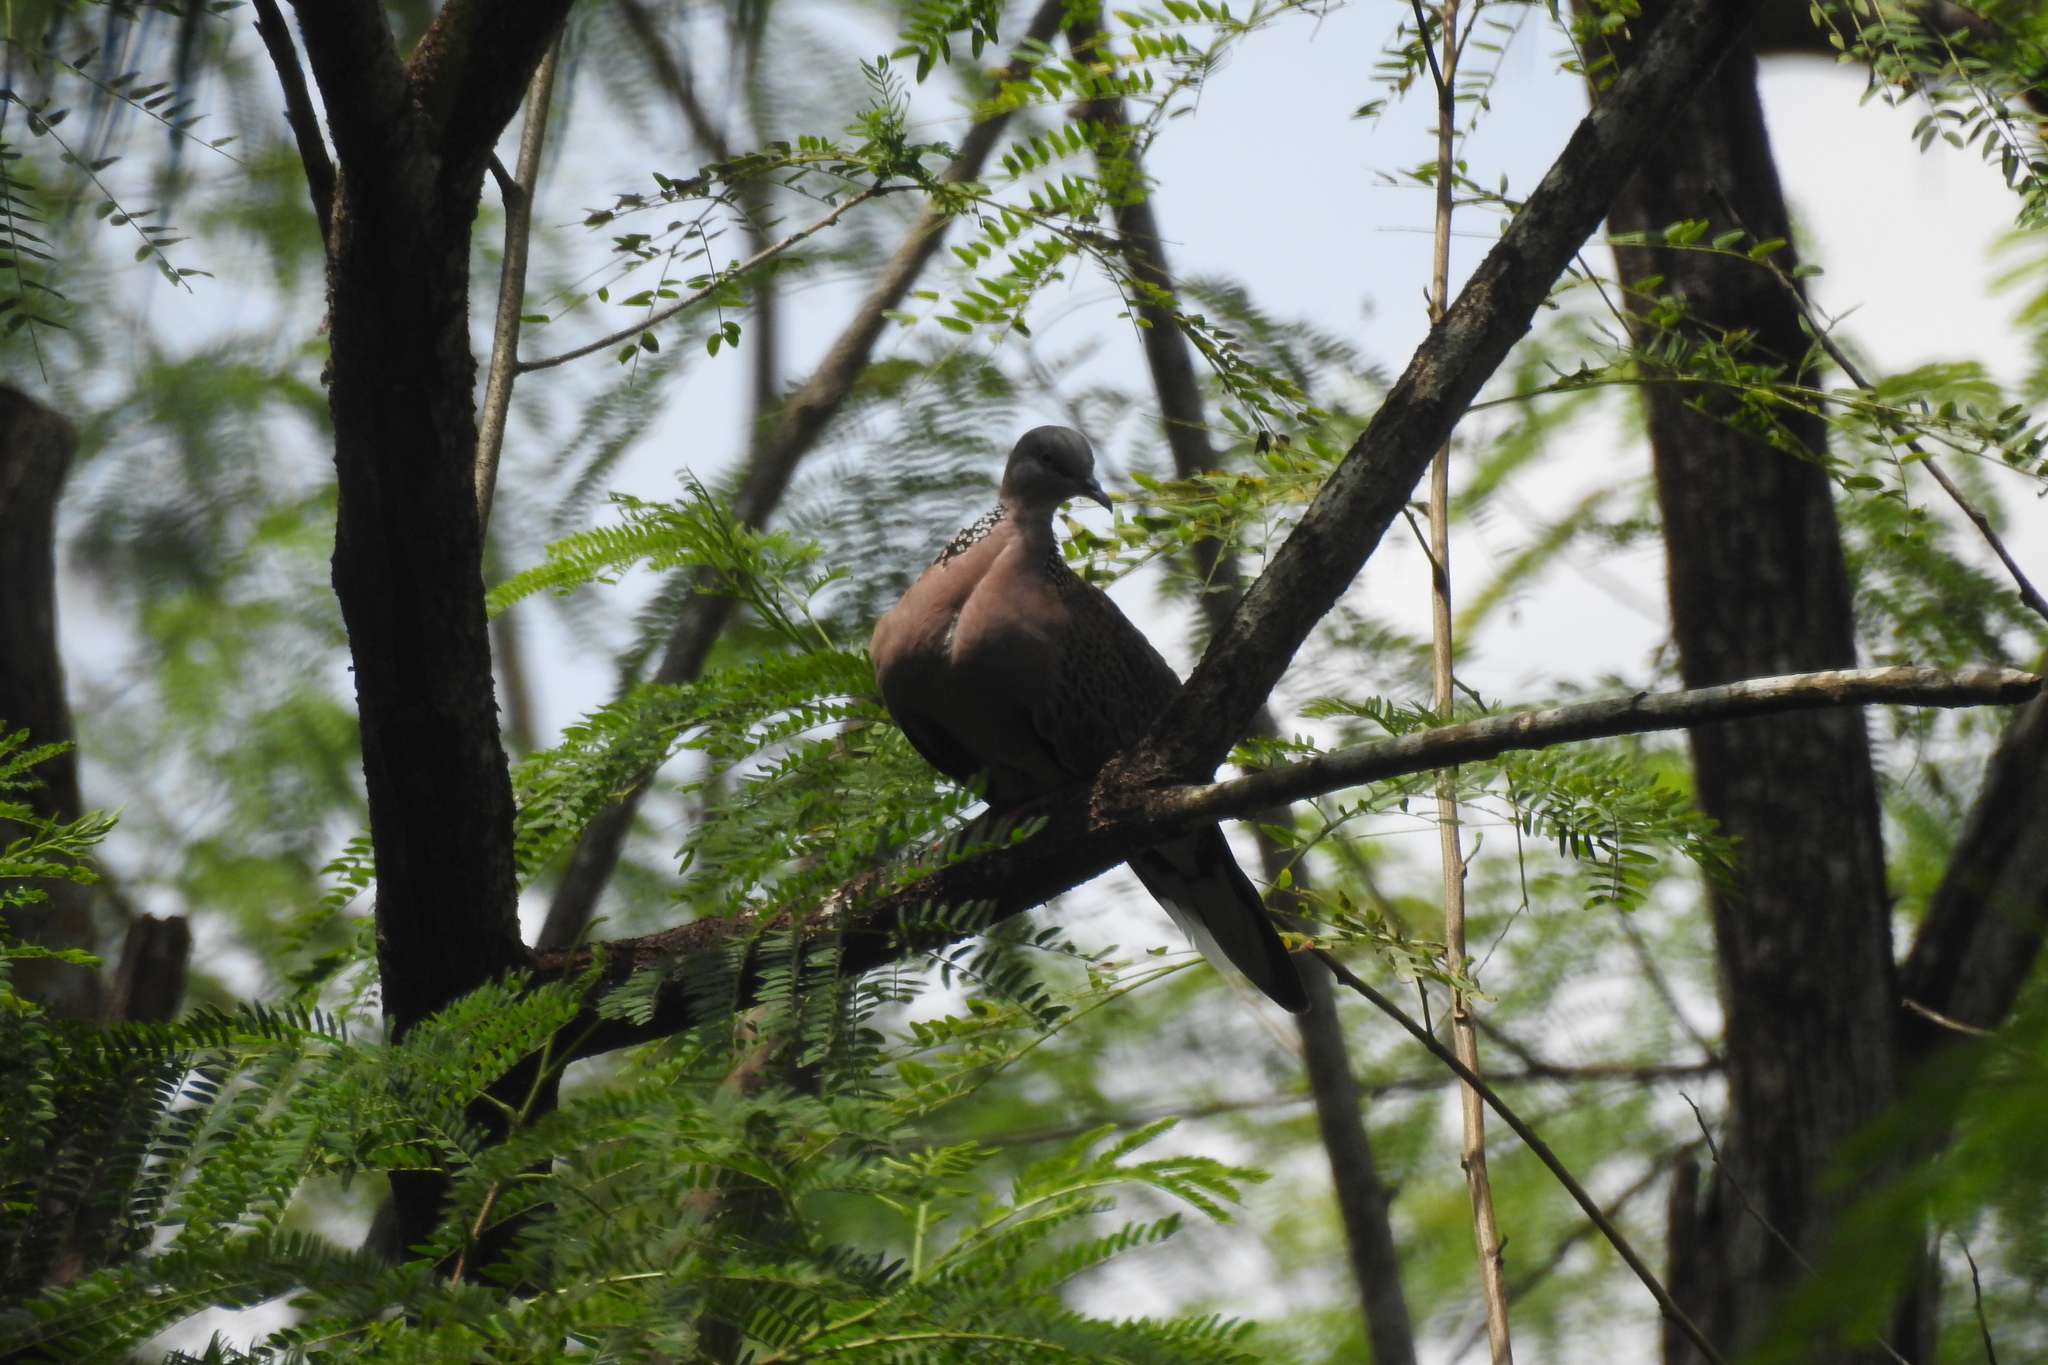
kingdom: Animalia
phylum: Chordata
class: Aves
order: Columbiformes
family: Columbidae
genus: Spilopelia
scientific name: Spilopelia chinensis
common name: Spotted dove
